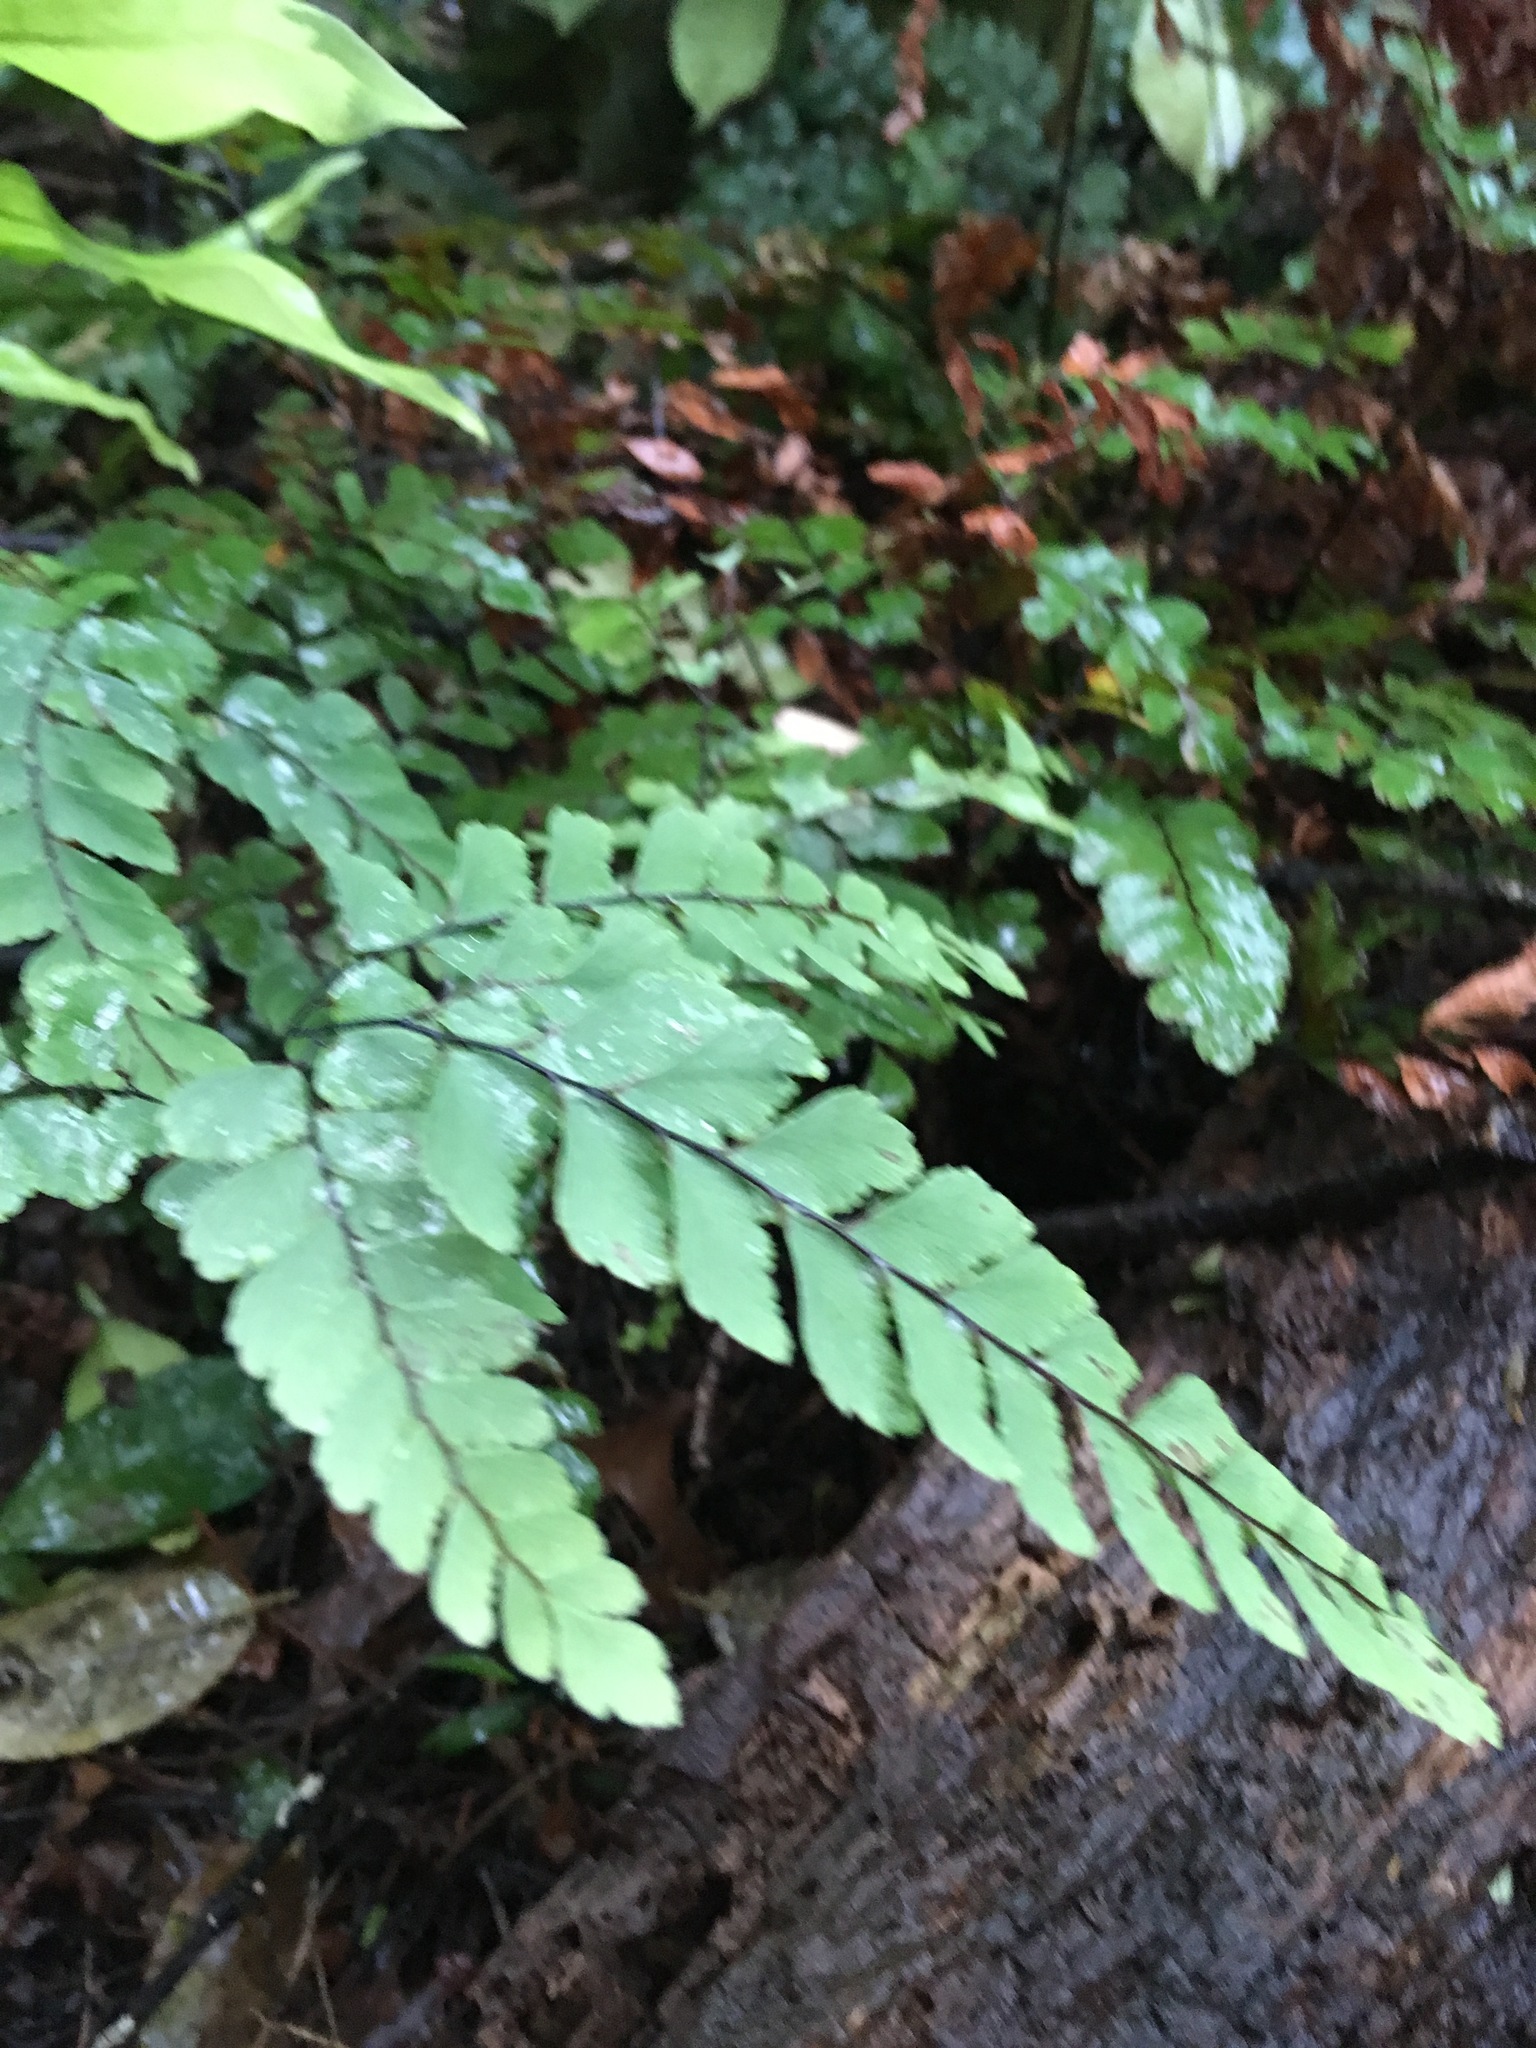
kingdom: Plantae
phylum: Tracheophyta
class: Polypodiopsida
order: Polypodiales
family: Pteridaceae
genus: Adiantum
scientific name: Adiantum cunninghamii
